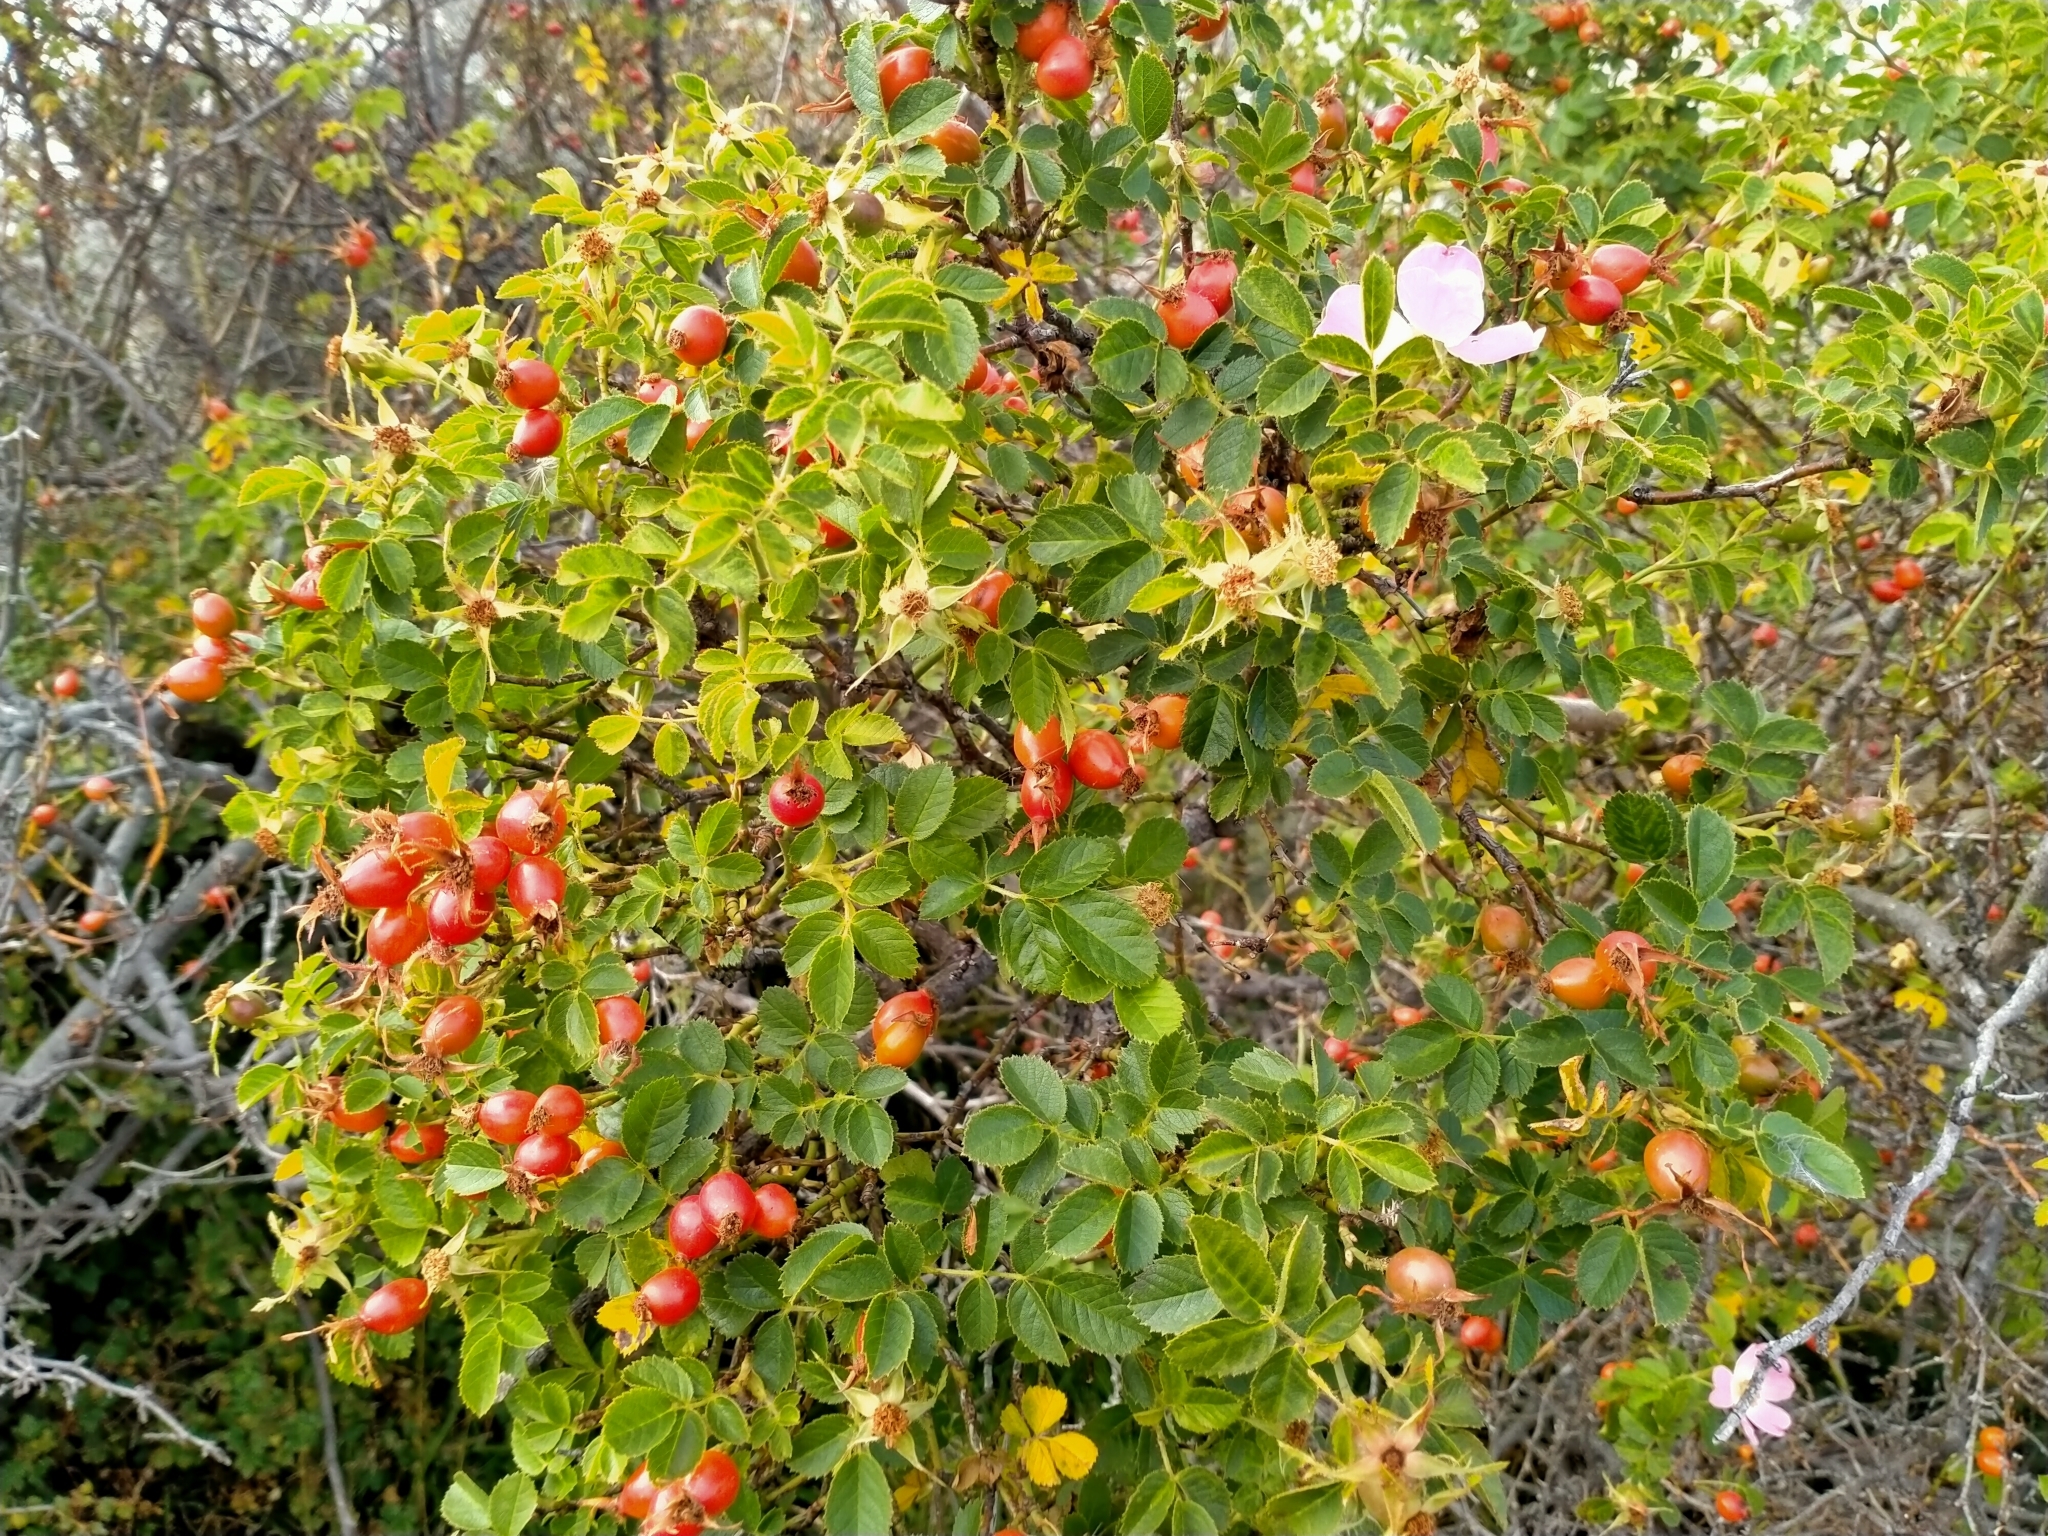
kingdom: Plantae
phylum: Tracheophyta
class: Magnoliopsida
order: Rosales
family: Rosaceae
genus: Rosa
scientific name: Rosa rubiginosa
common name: Sweet-briar
